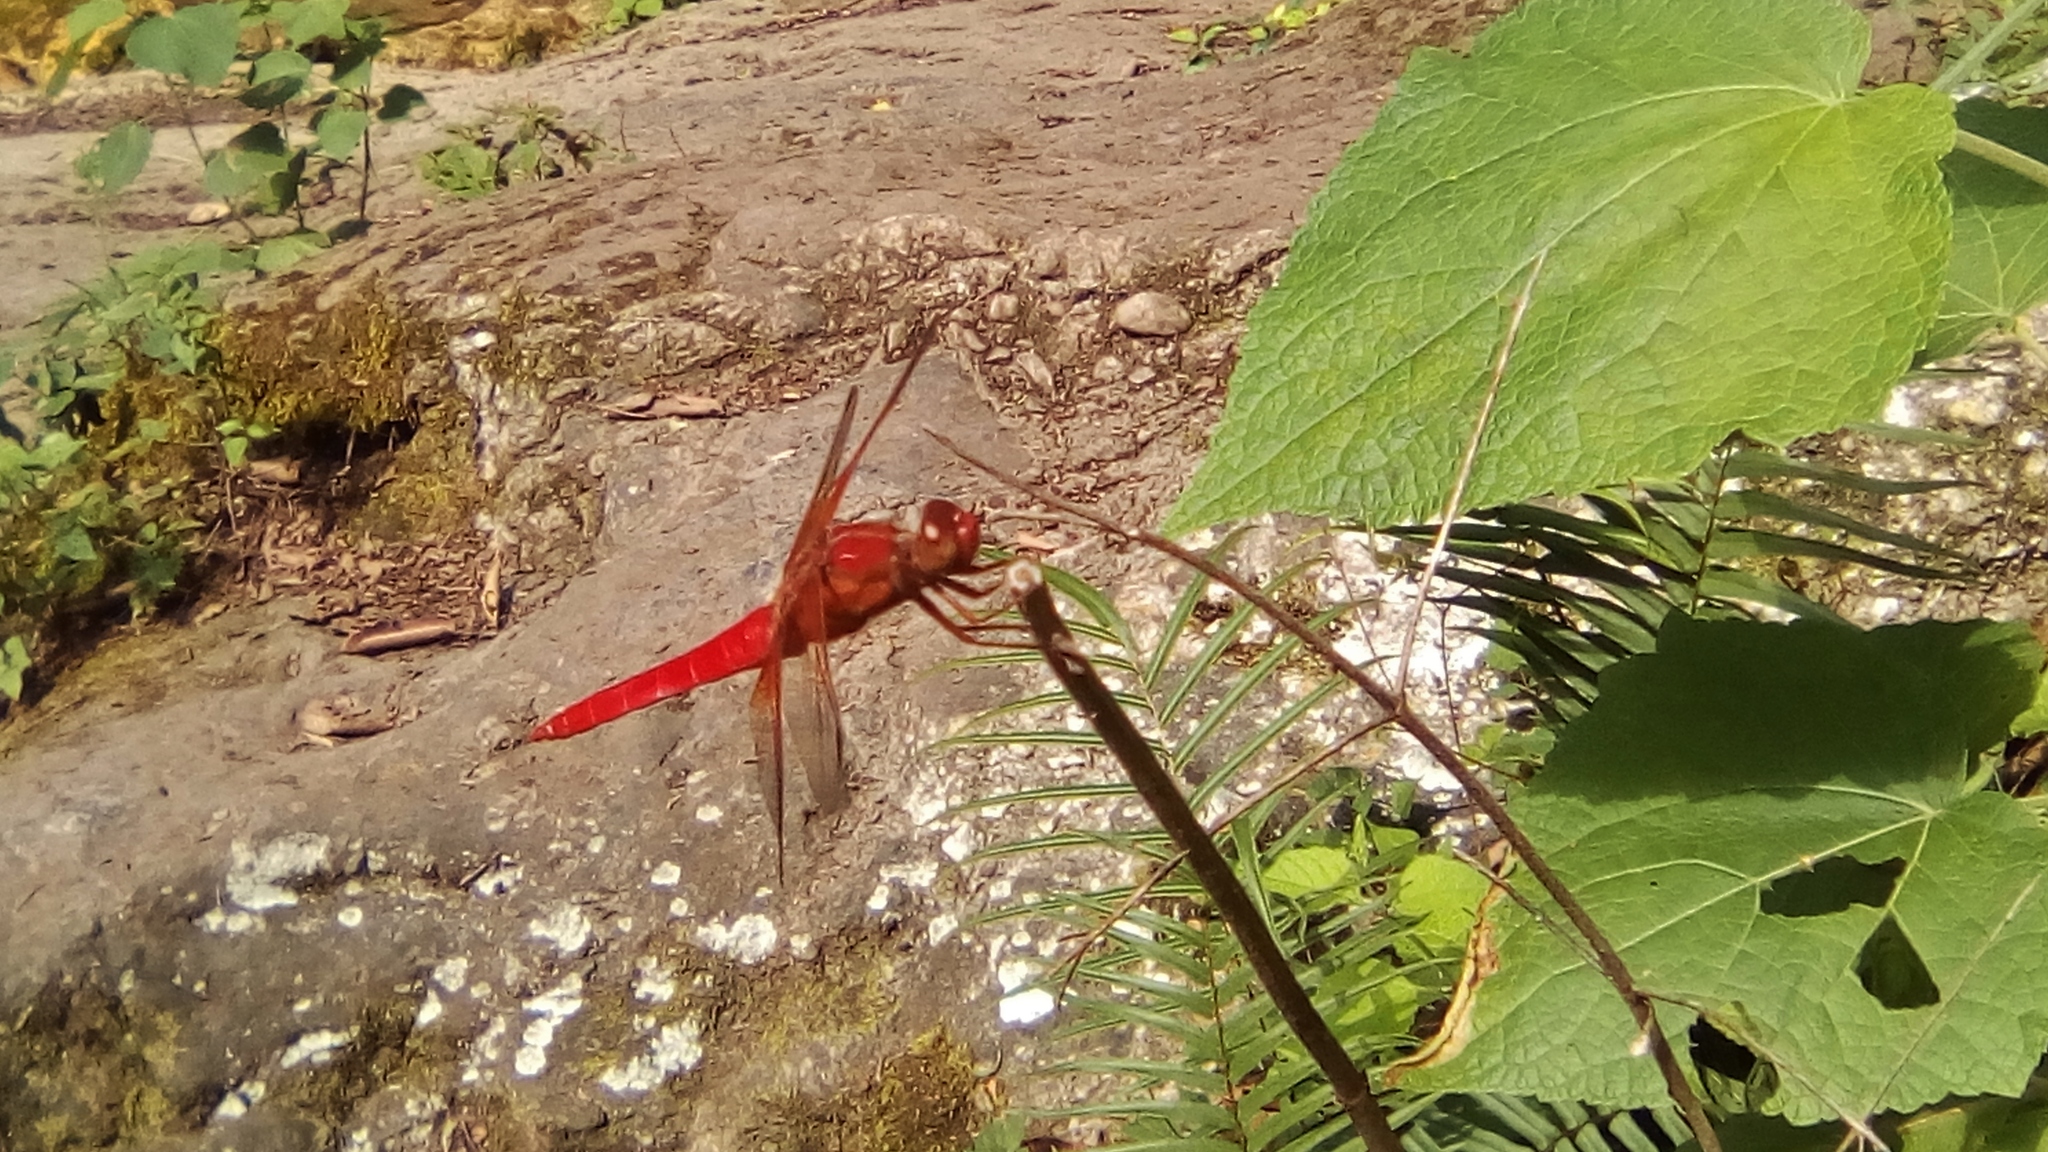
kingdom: Animalia
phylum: Arthropoda
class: Insecta
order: Odonata
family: Libellulidae
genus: Libellula
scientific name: Libellula croceipennis
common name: Neon skimmer
